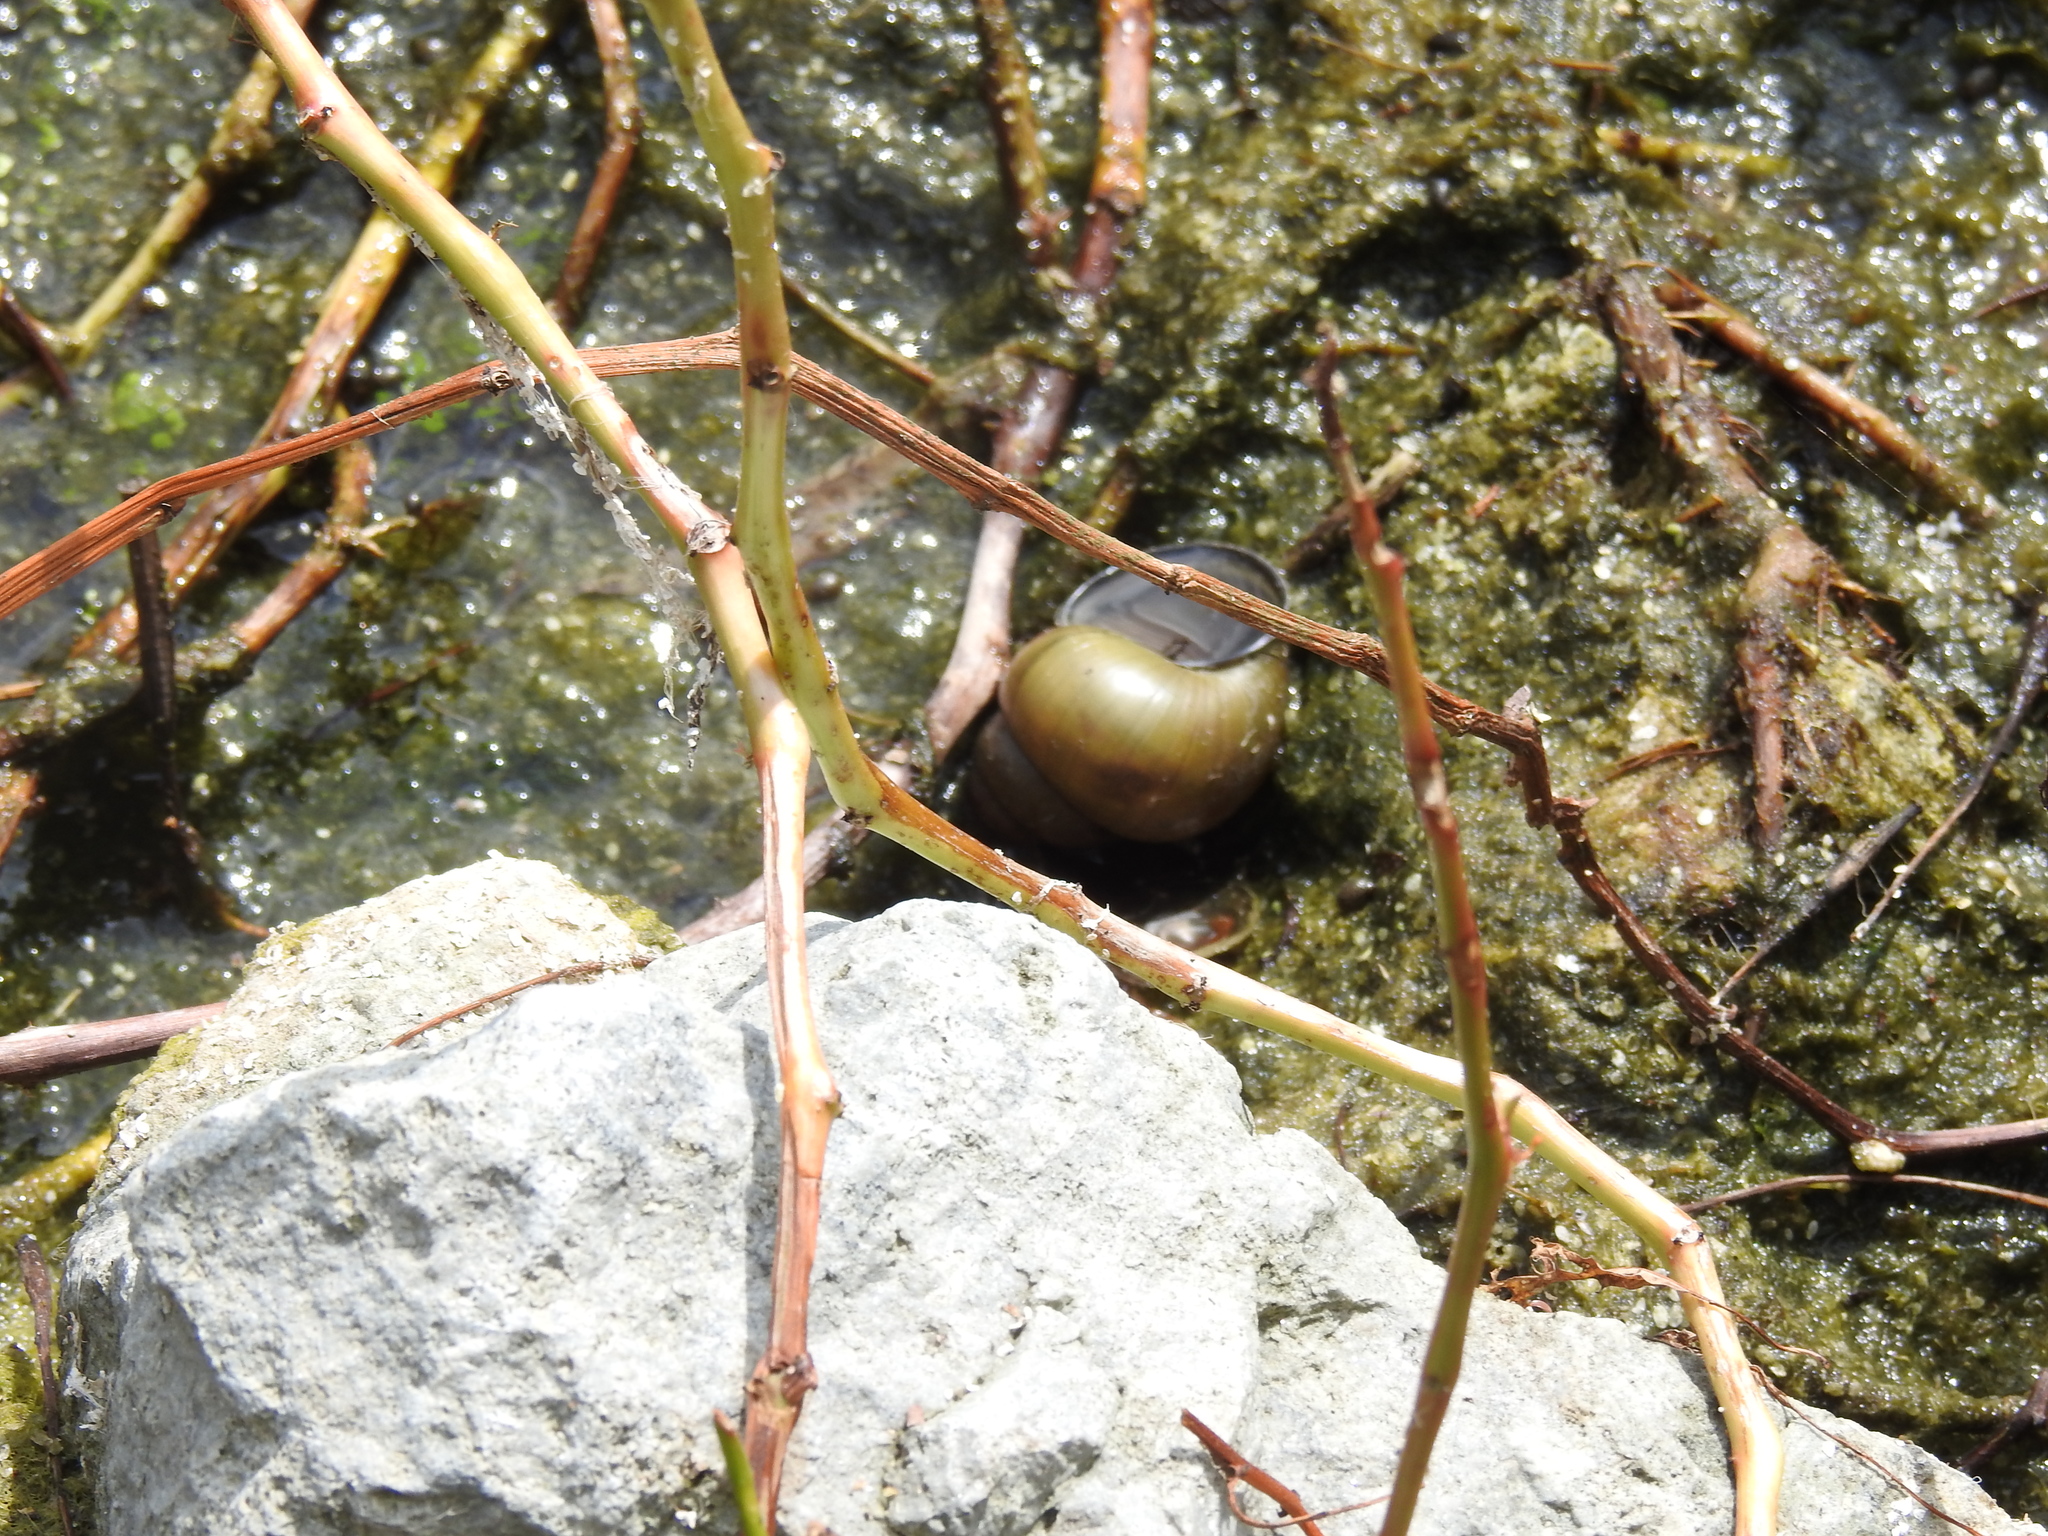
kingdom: Animalia
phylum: Mollusca
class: Gastropoda
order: Architaenioglossa
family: Viviparidae
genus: Cipangopaludina
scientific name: Cipangopaludina chinensis
